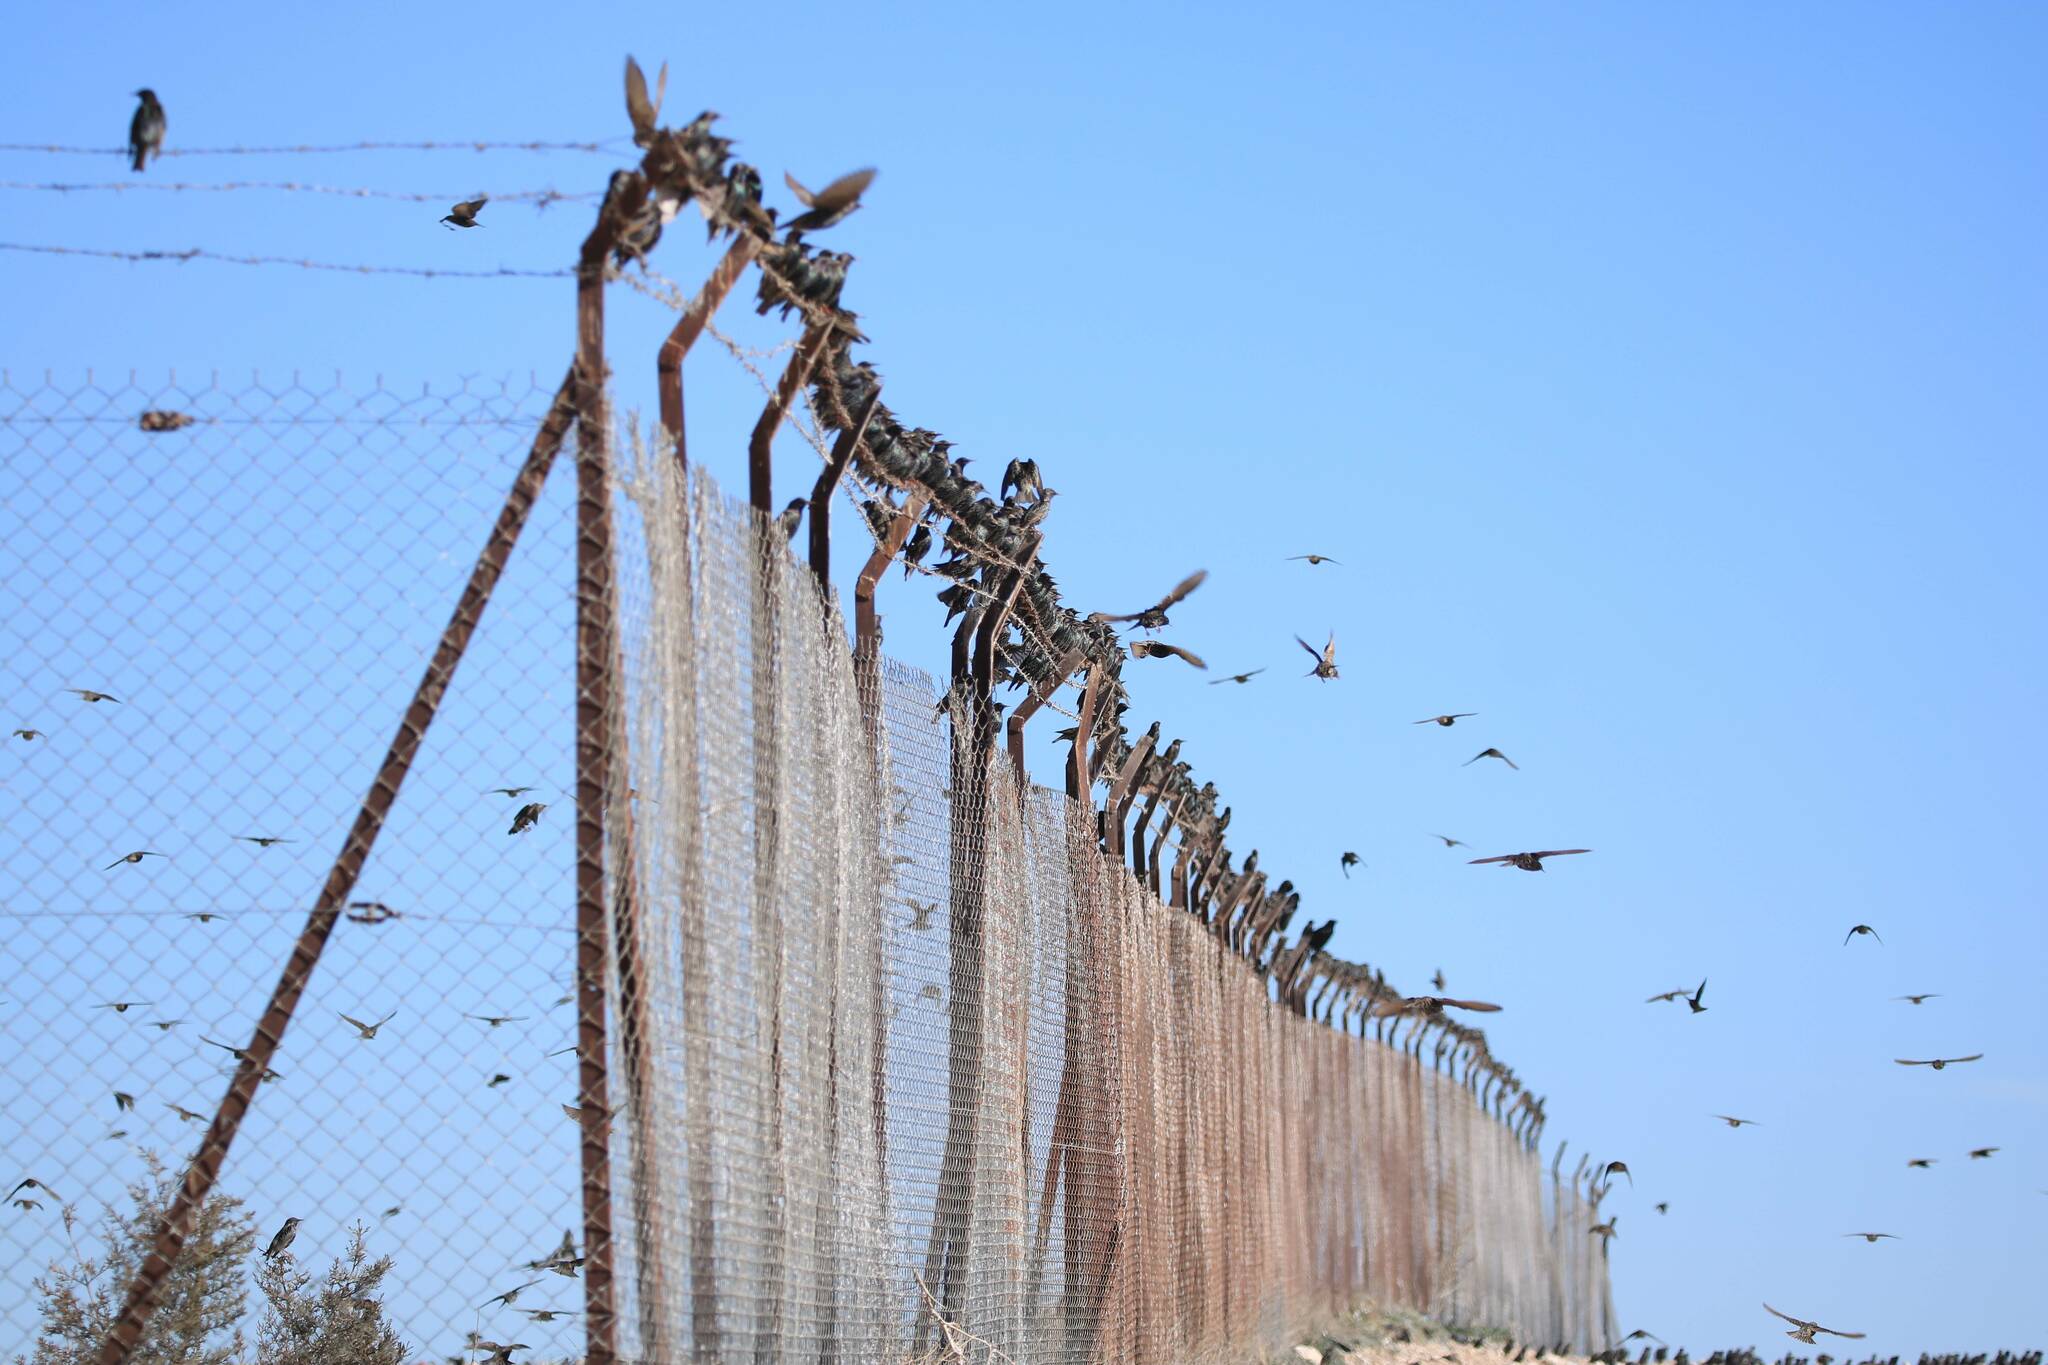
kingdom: Animalia
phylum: Chordata
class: Aves
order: Passeriformes
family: Sturnidae
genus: Sturnus
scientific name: Sturnus vulgaris
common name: Common starling
